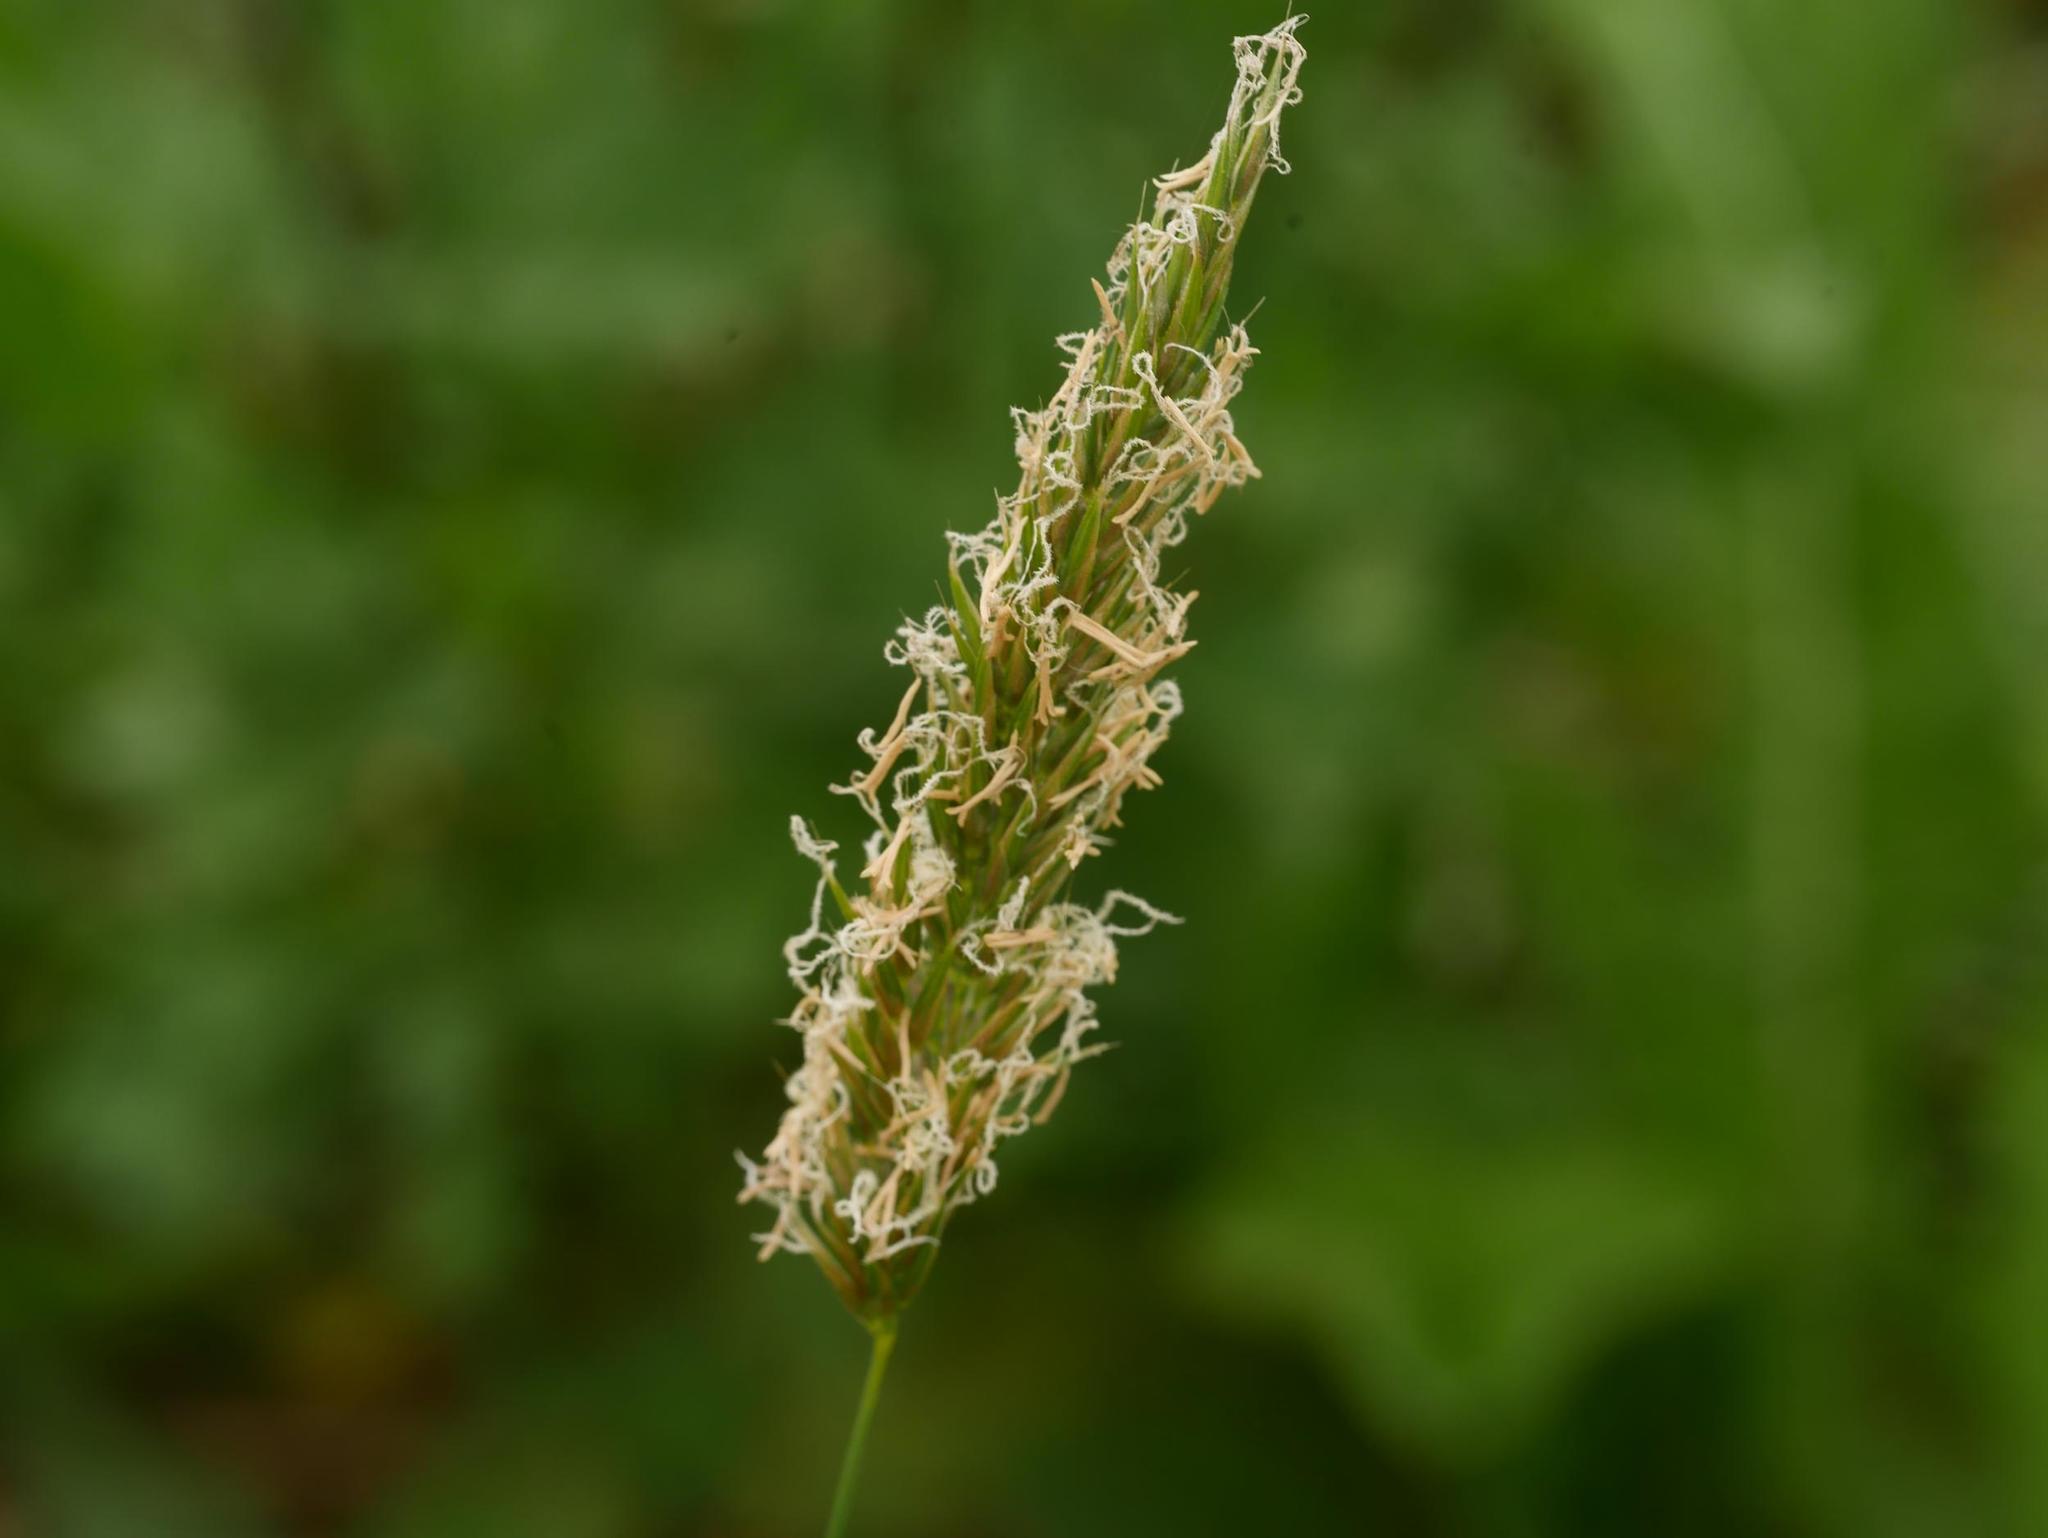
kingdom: Plantae
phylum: Tracheophyta
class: Liliopsida
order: Poales
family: Poaceae
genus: Anthoxanthum
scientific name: Anthoxanthum odoratum
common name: Sweet vernalgrass
